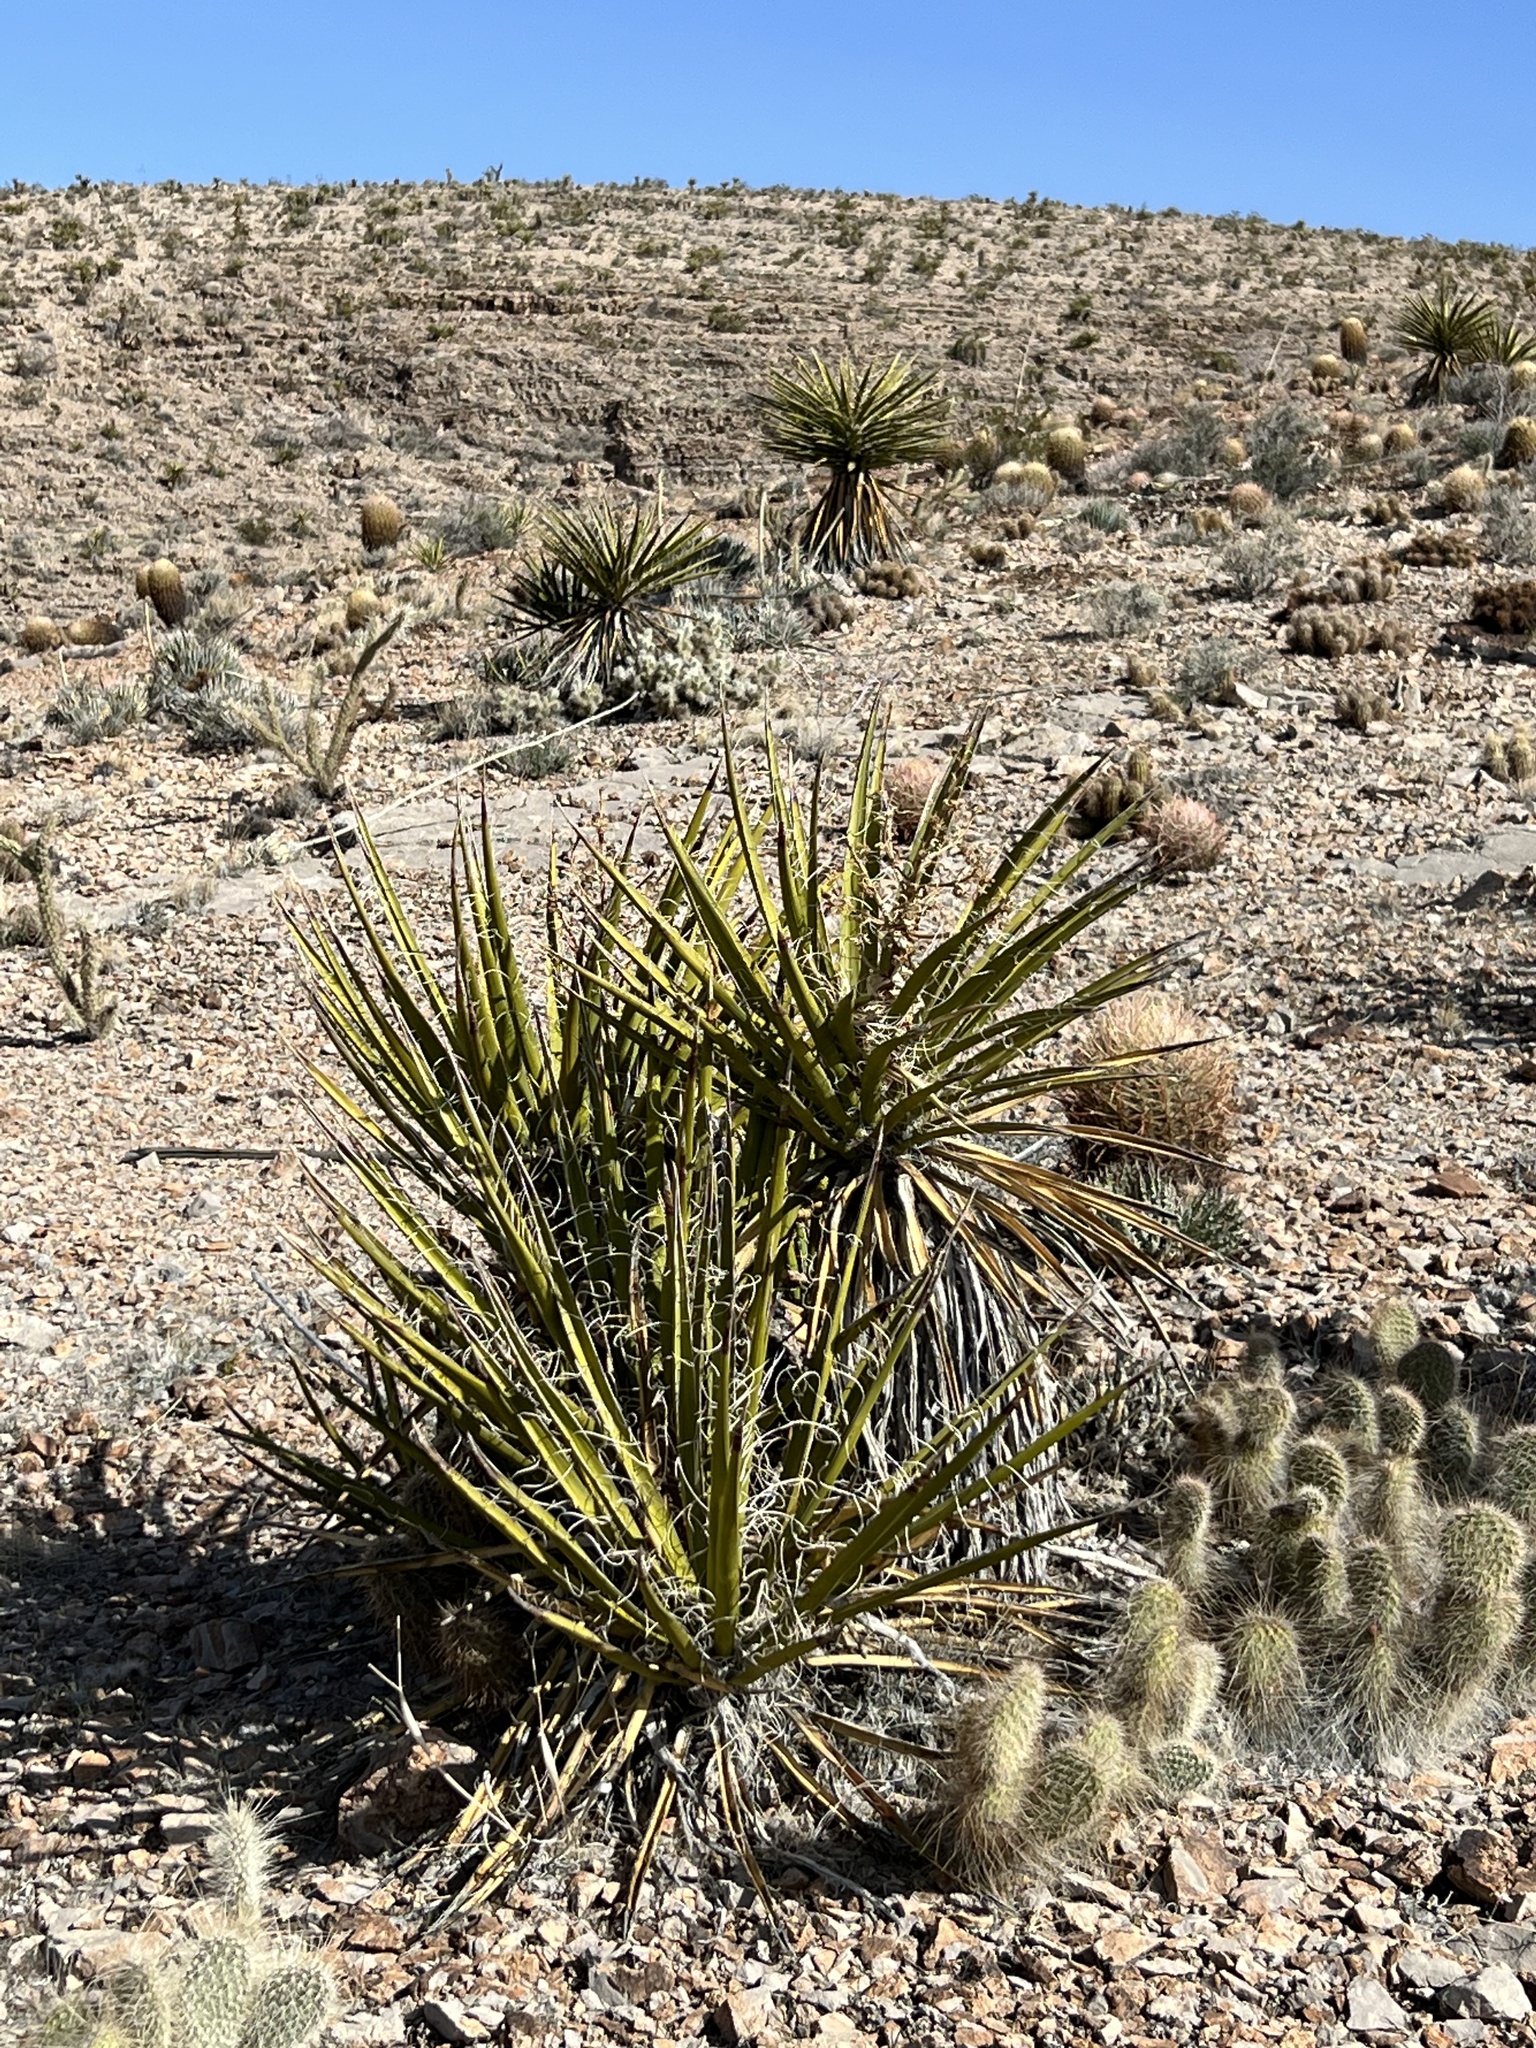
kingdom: Plantae
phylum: Tracheophyta
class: Liliopsida
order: Asparagales
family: Asparagaceae
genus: Yucca
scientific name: Yucca schidigera
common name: Mojave yucca
